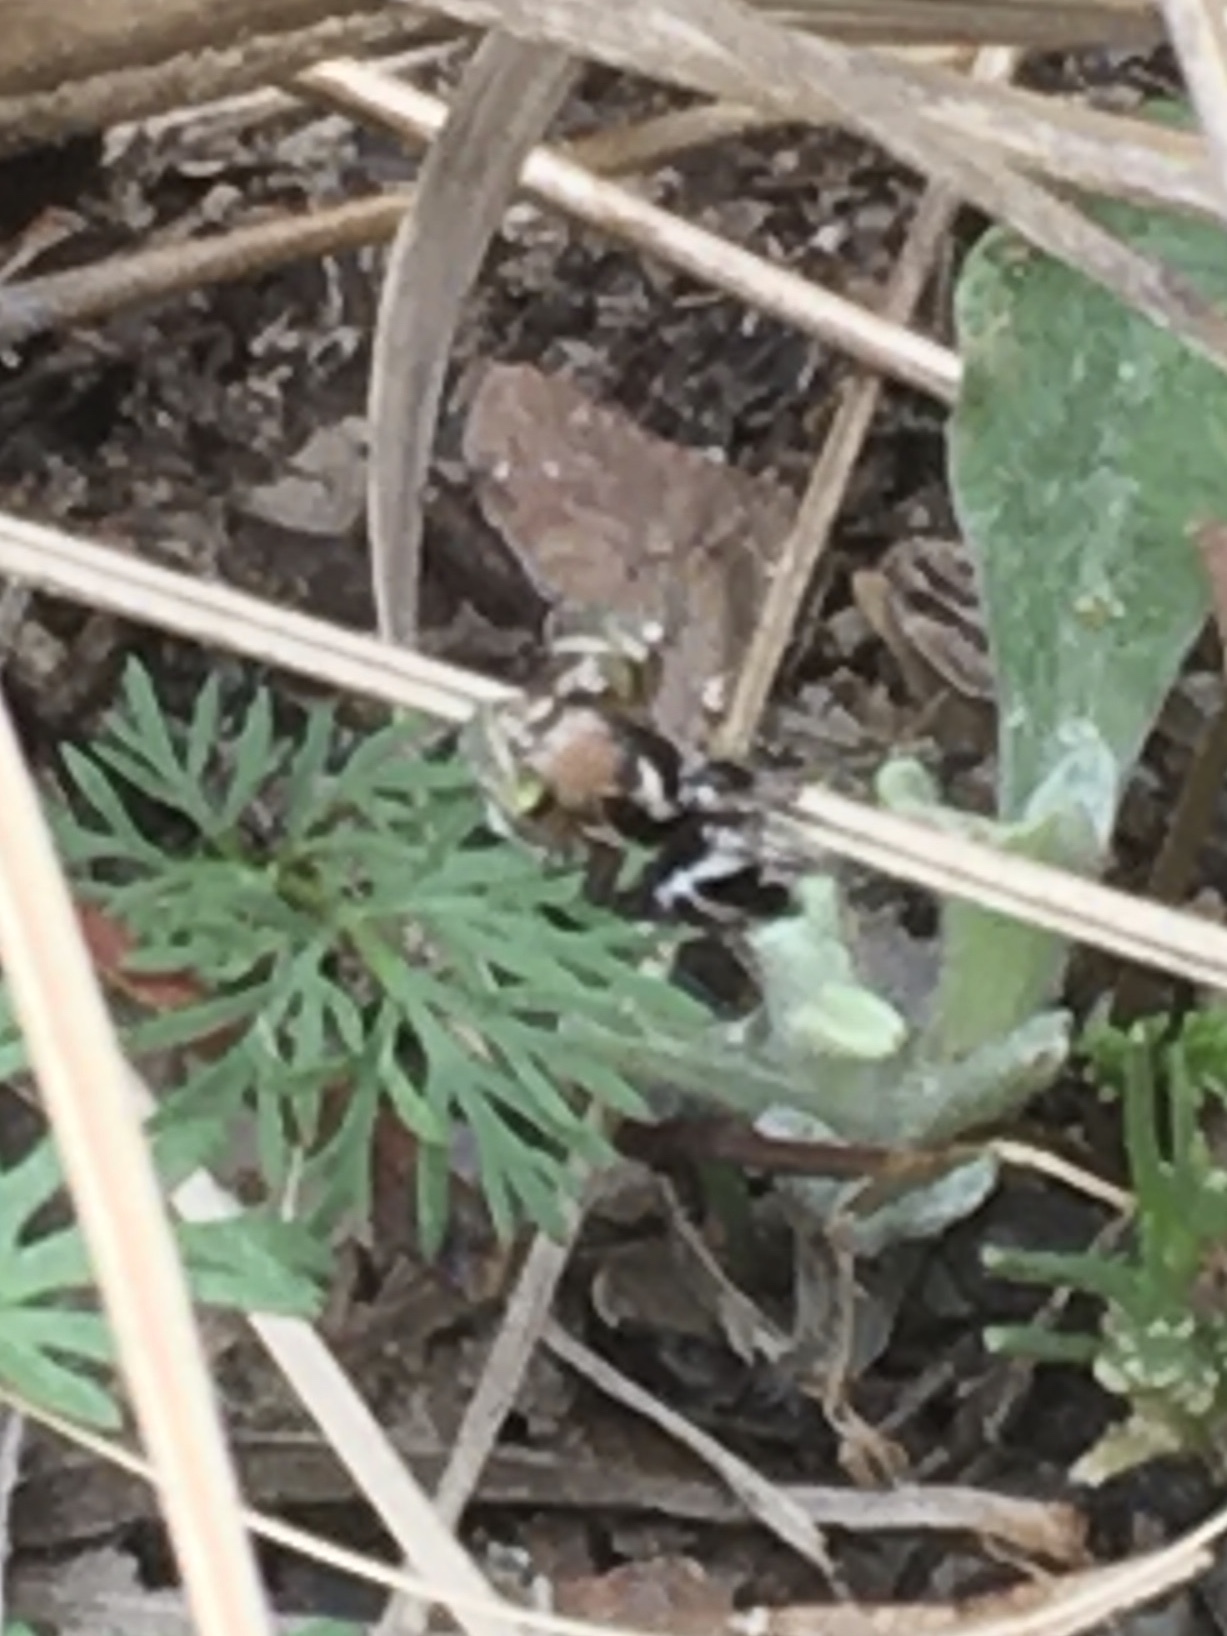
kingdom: Animalia
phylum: Arthropoda
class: Arachnida
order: Araneae
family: Salticidae
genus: Habronattus
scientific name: Habronattus notialis
